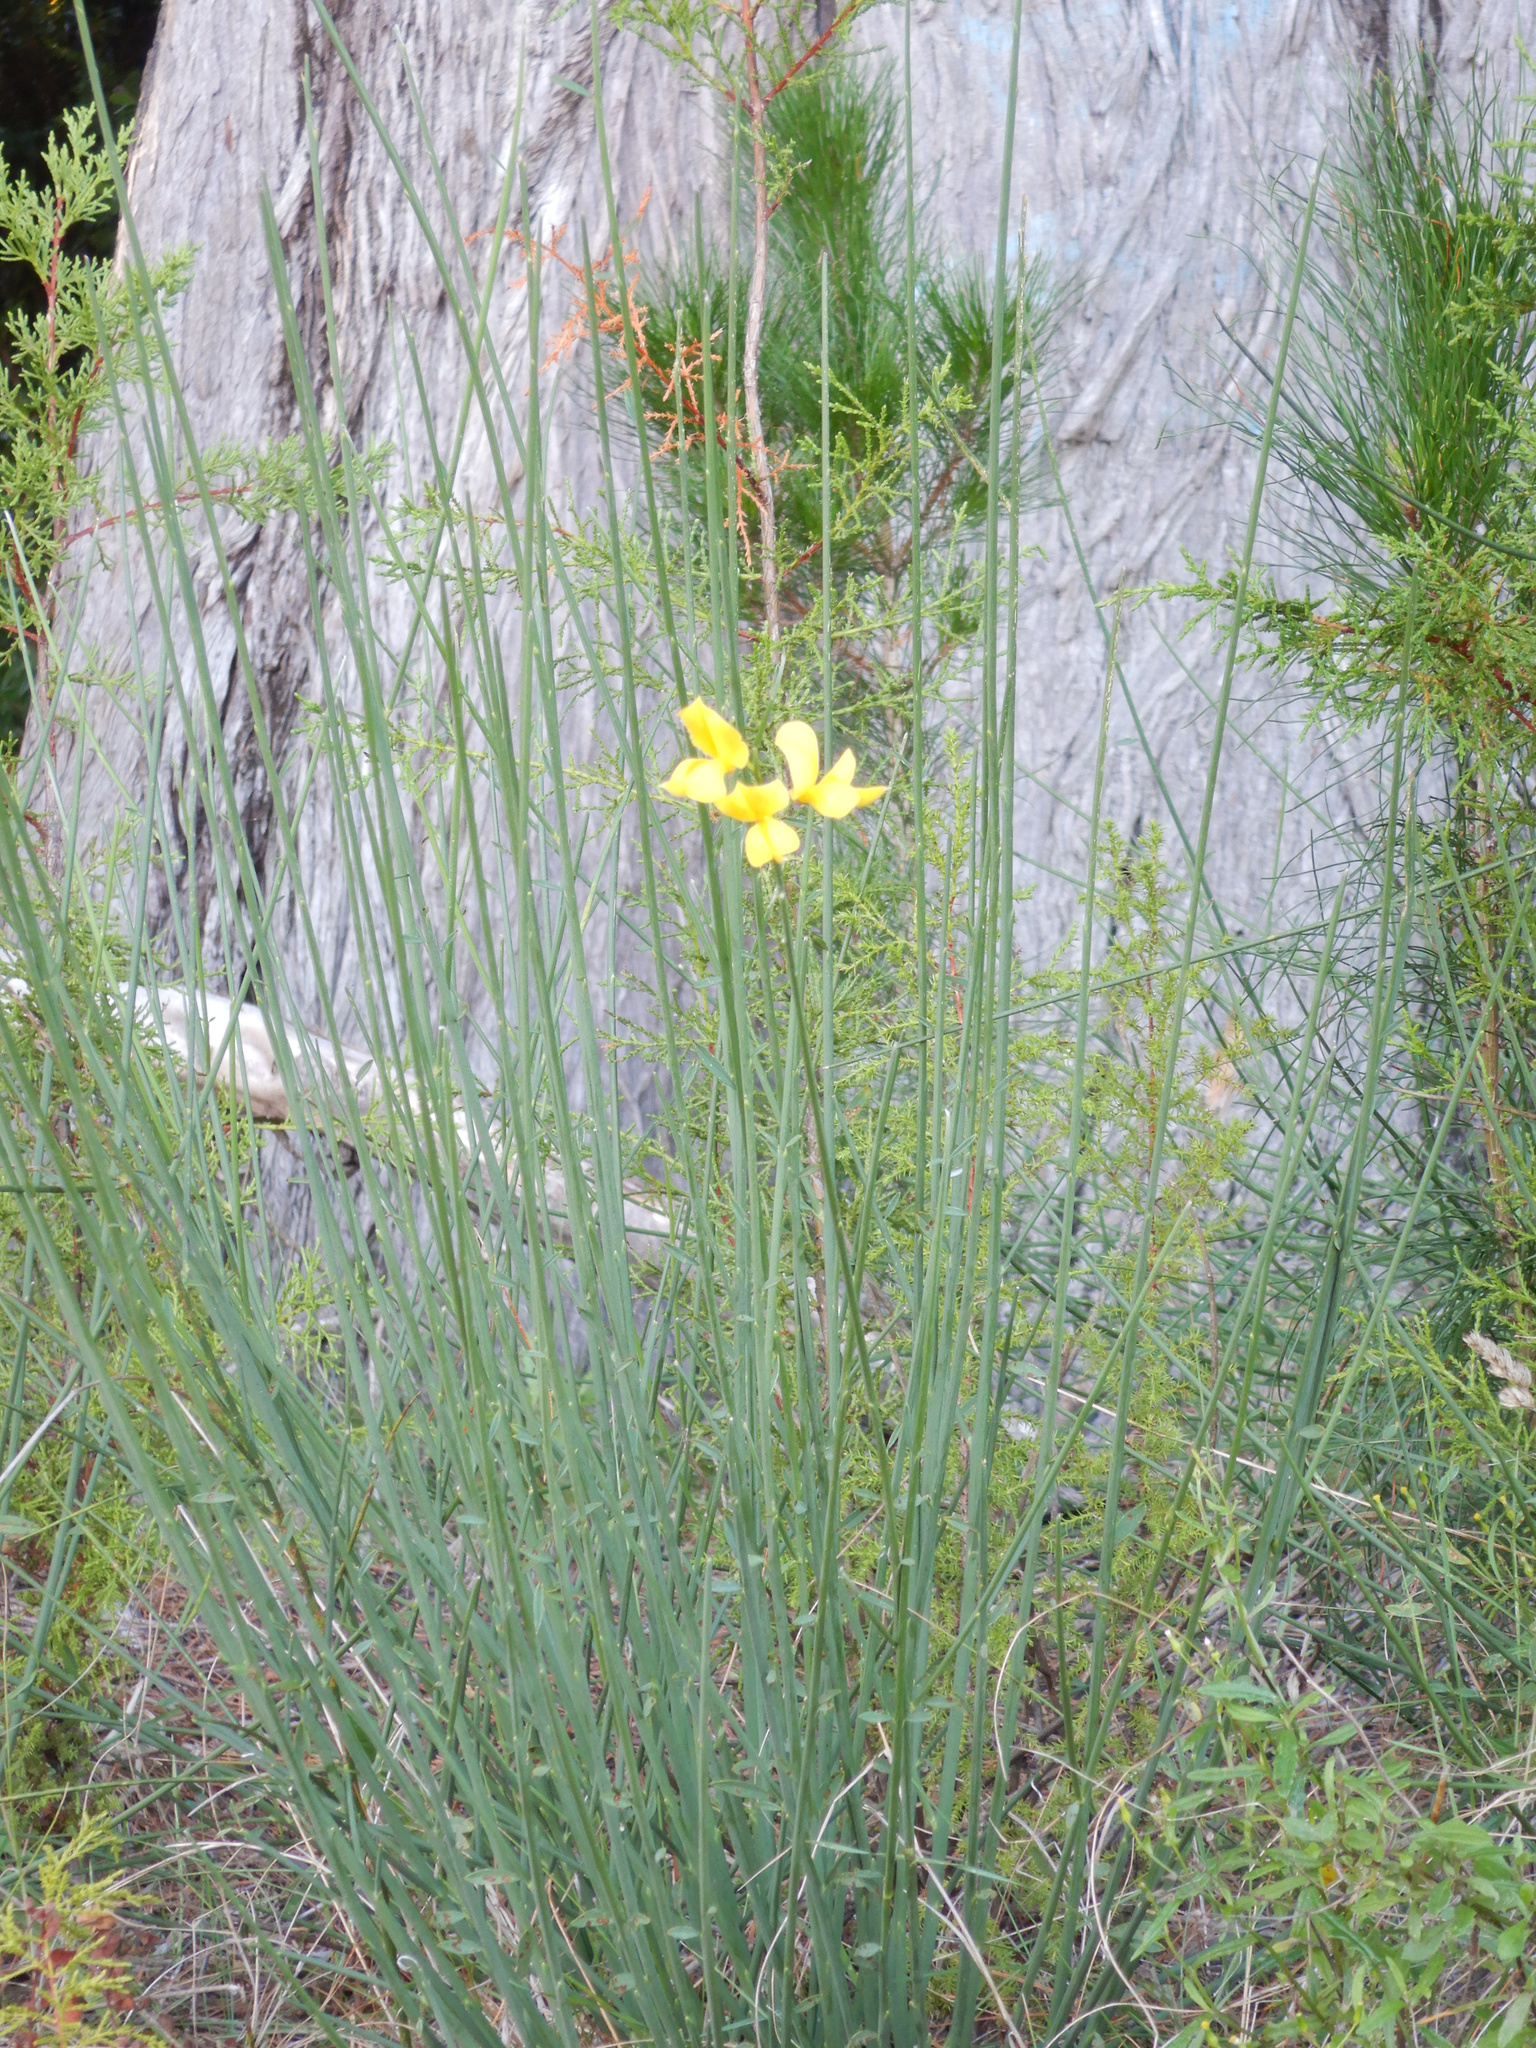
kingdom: Plantae
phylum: Tracheophyta
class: Magnoliopsida
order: Fabales
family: Fabaceae
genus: Spartium
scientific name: Spartium junceum
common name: Spanish broom
